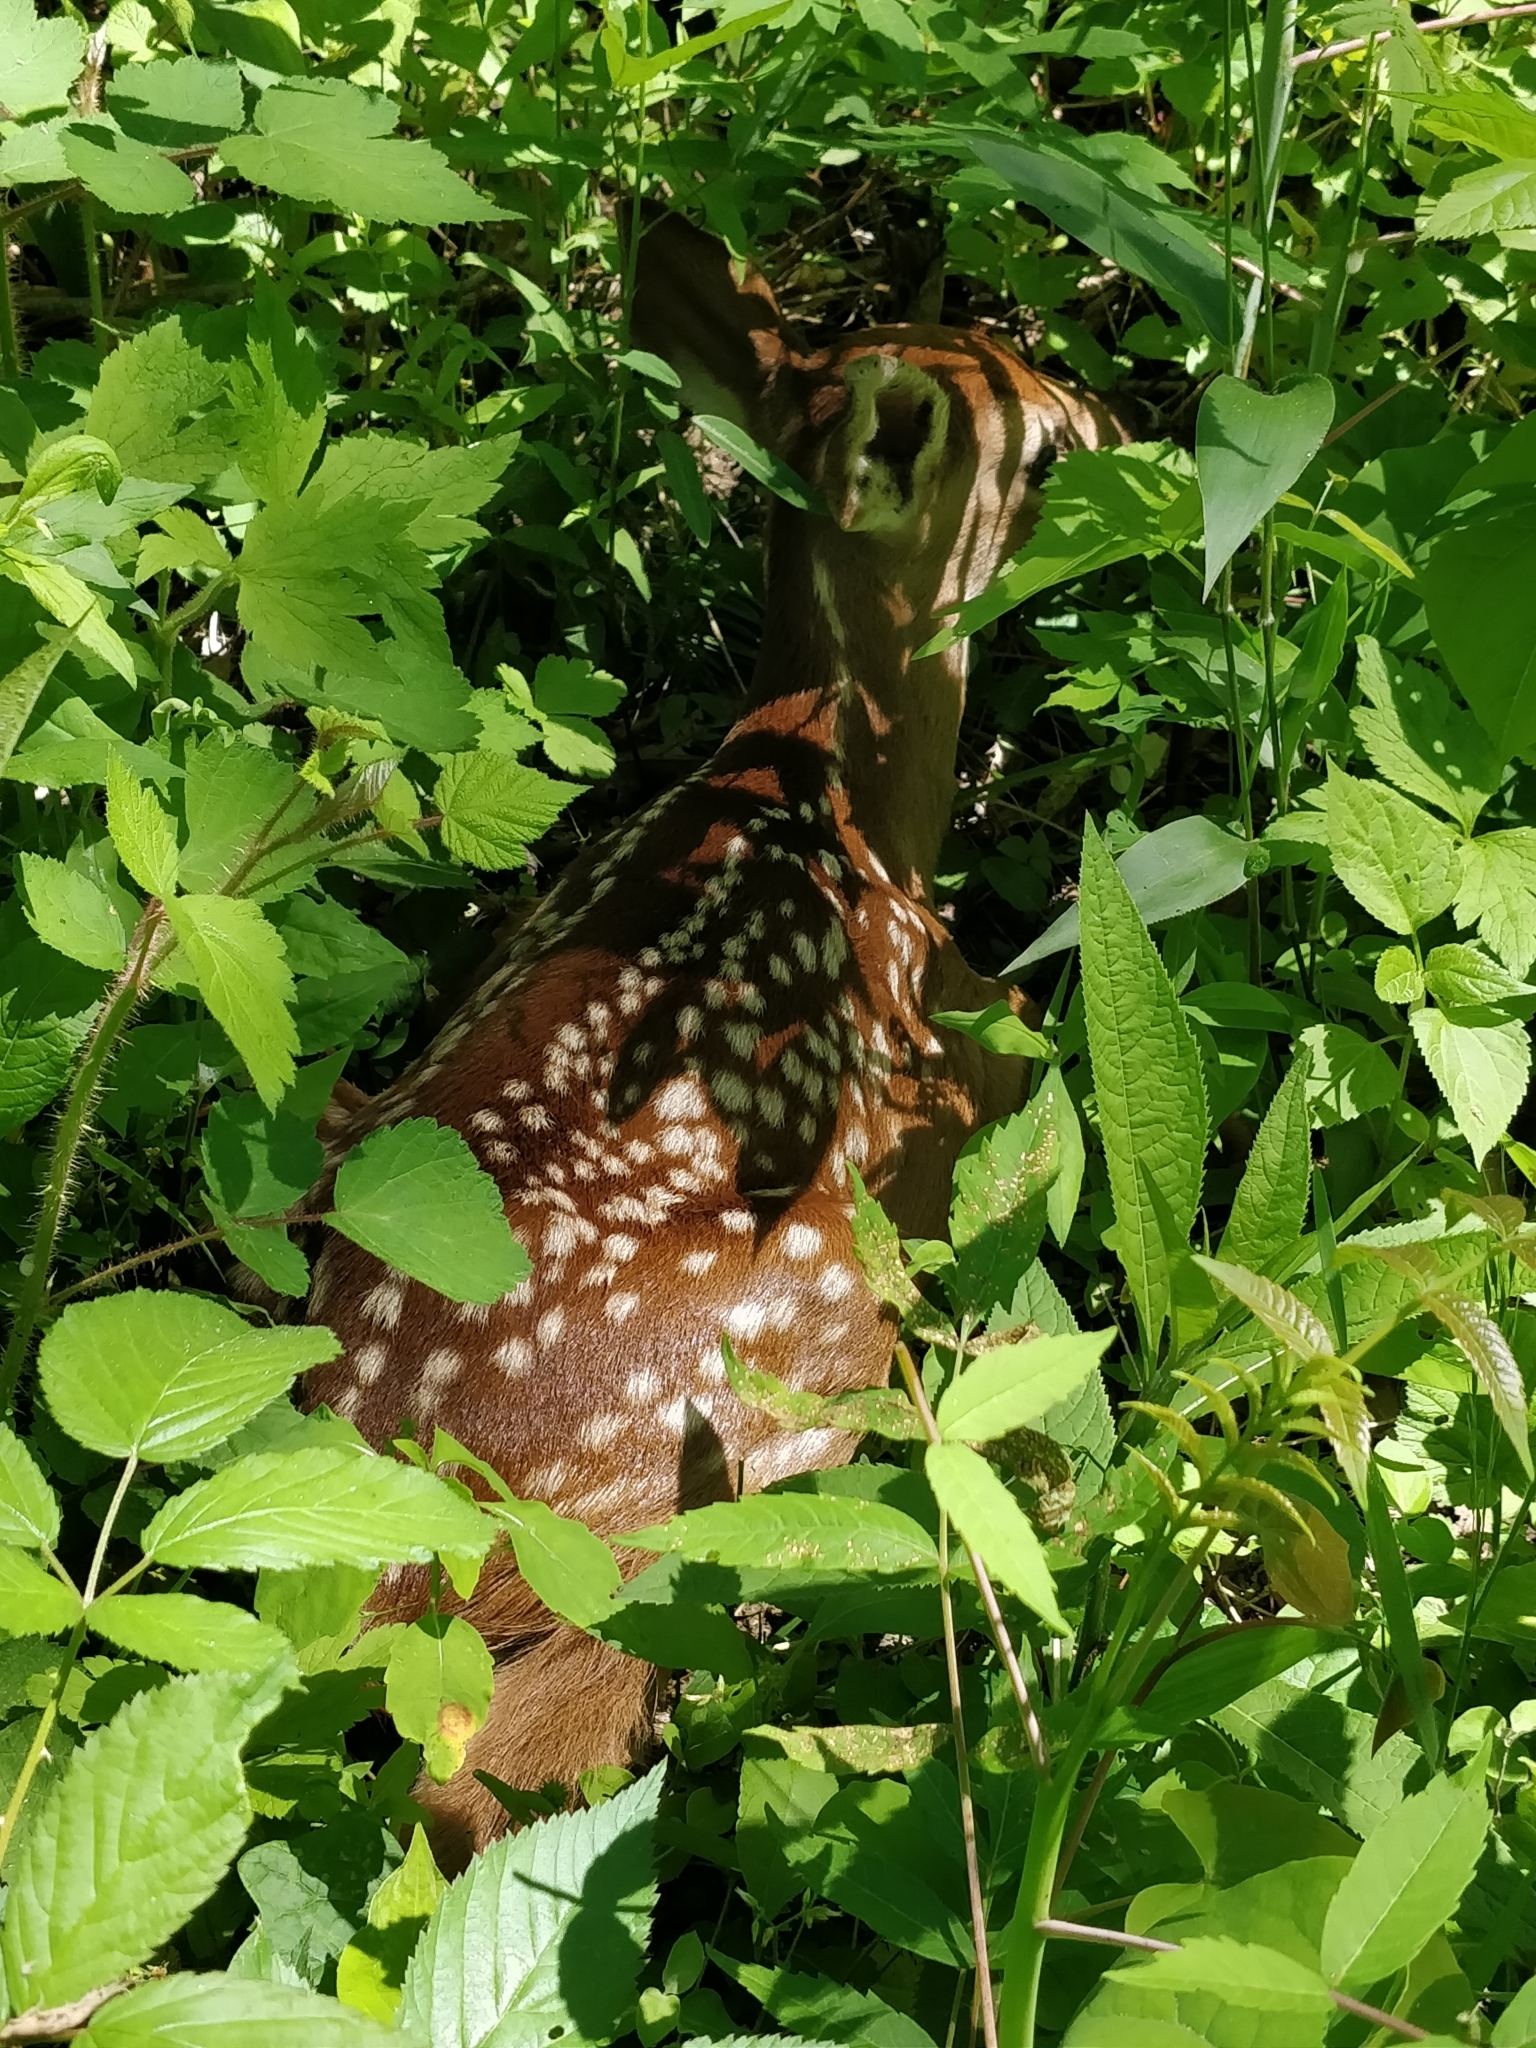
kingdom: Animalia
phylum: Chordata
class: Mammalia
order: Artiodactyla
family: Cervidae
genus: Odocoileus
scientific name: Odocoileus virginianus
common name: White-tailed deer
